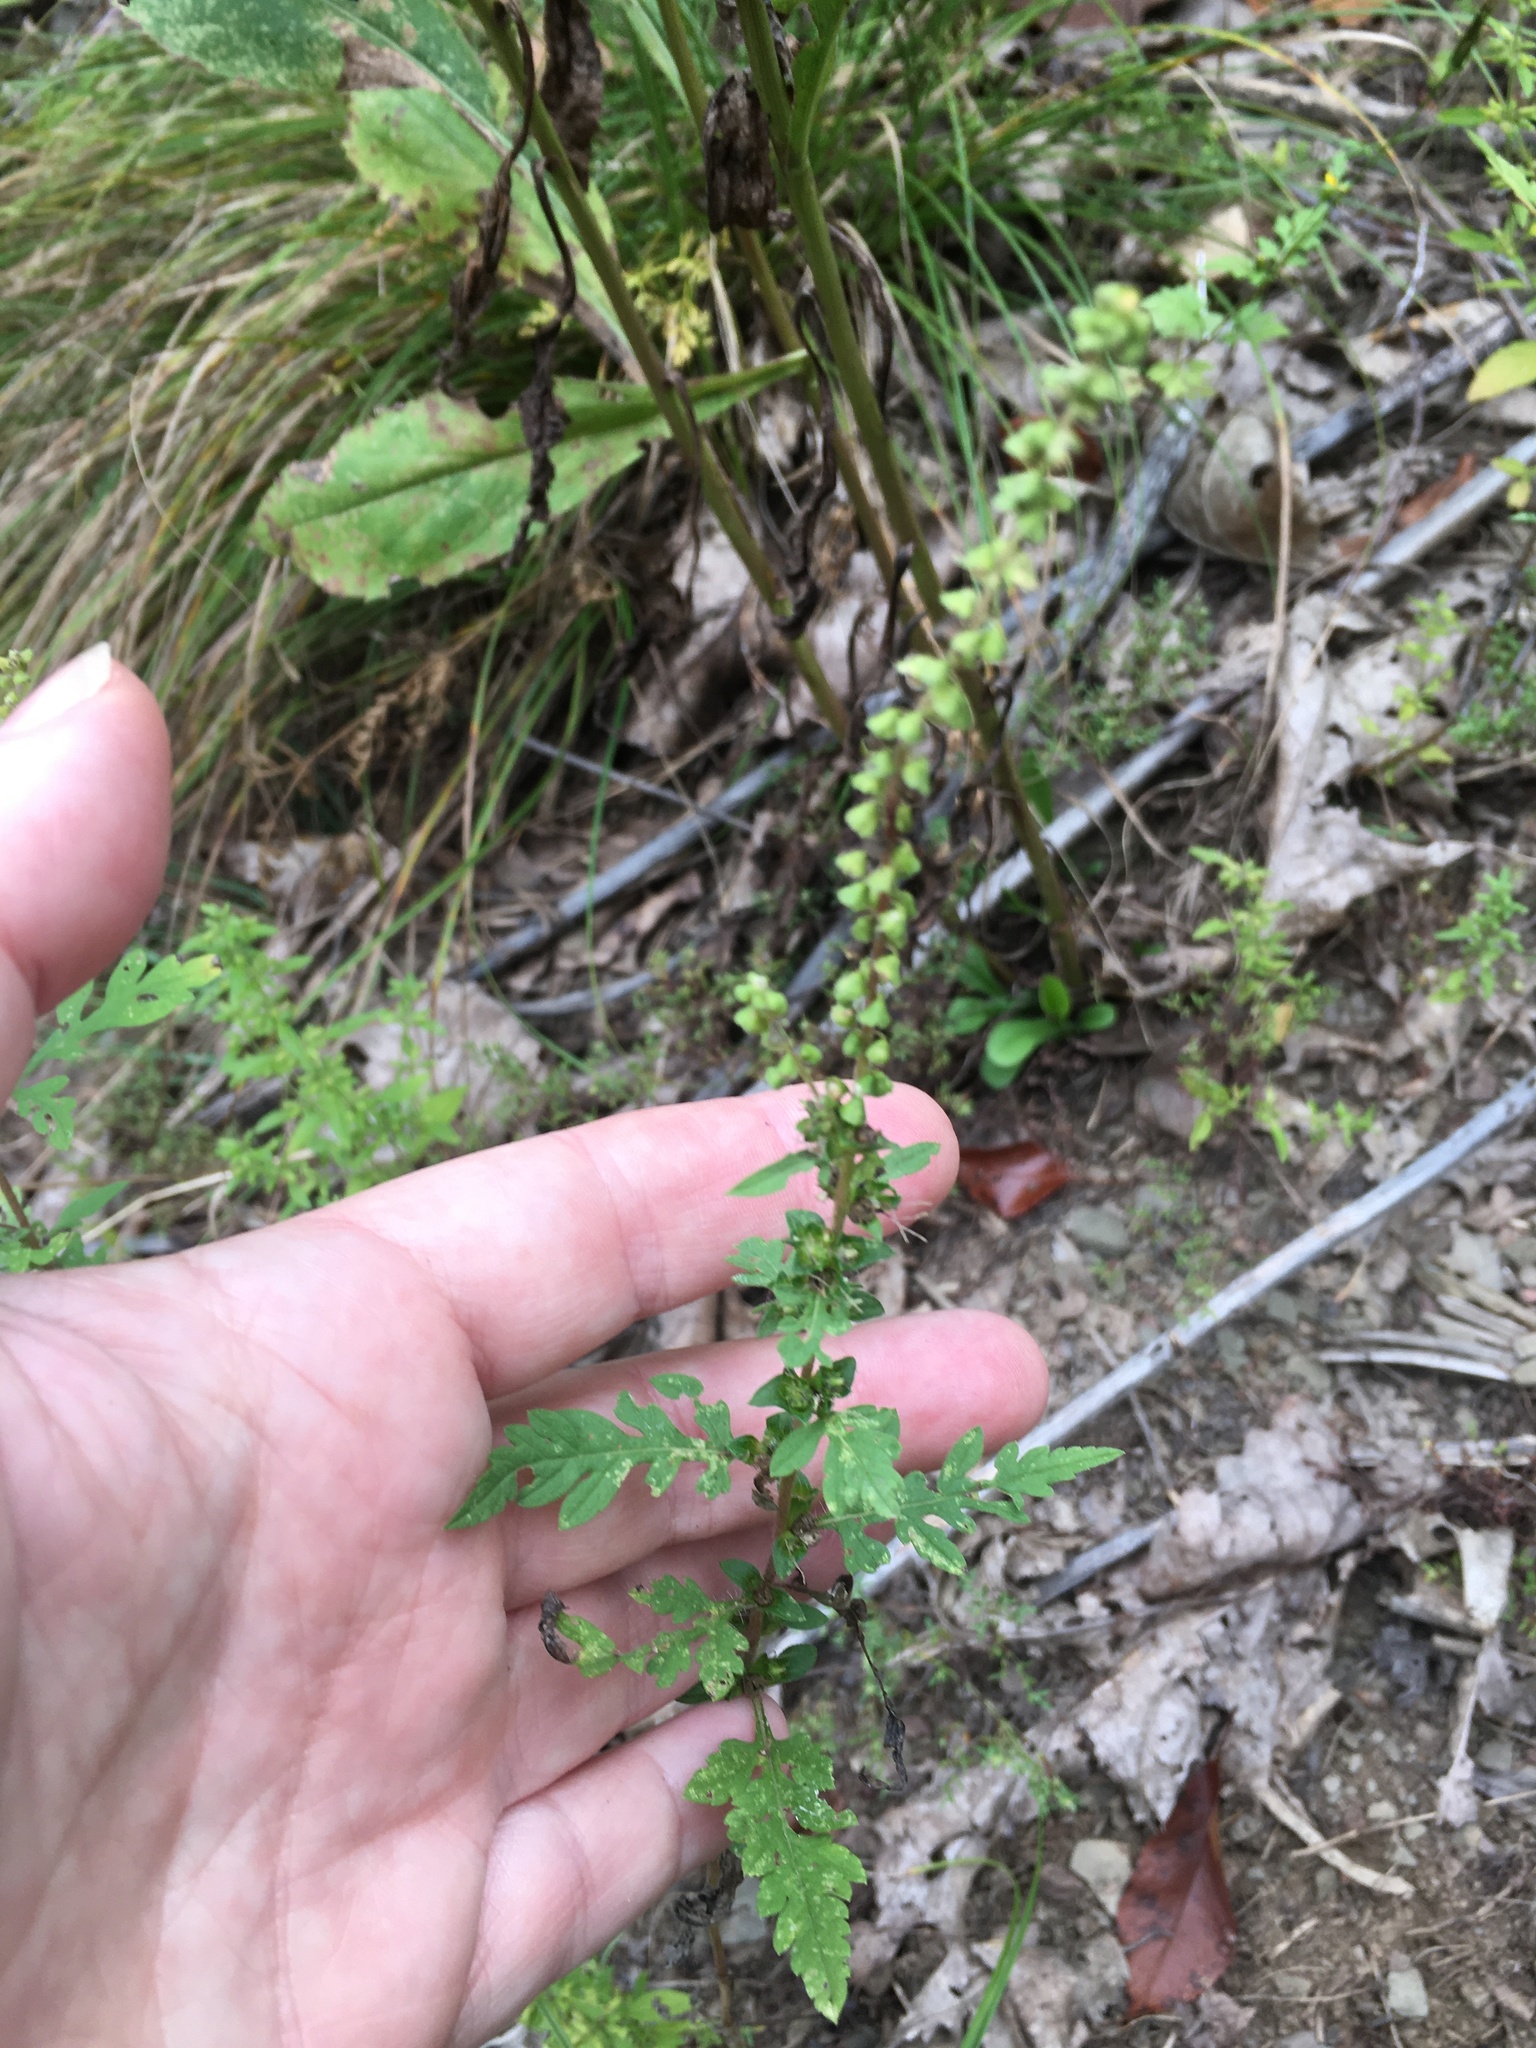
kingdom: Plantae
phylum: Tracheophyta
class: Magnoliopsida
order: Asterales
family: Asteraceae
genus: Ambrosia
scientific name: Ambrosia artemisiifolia
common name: Annual ragweed
